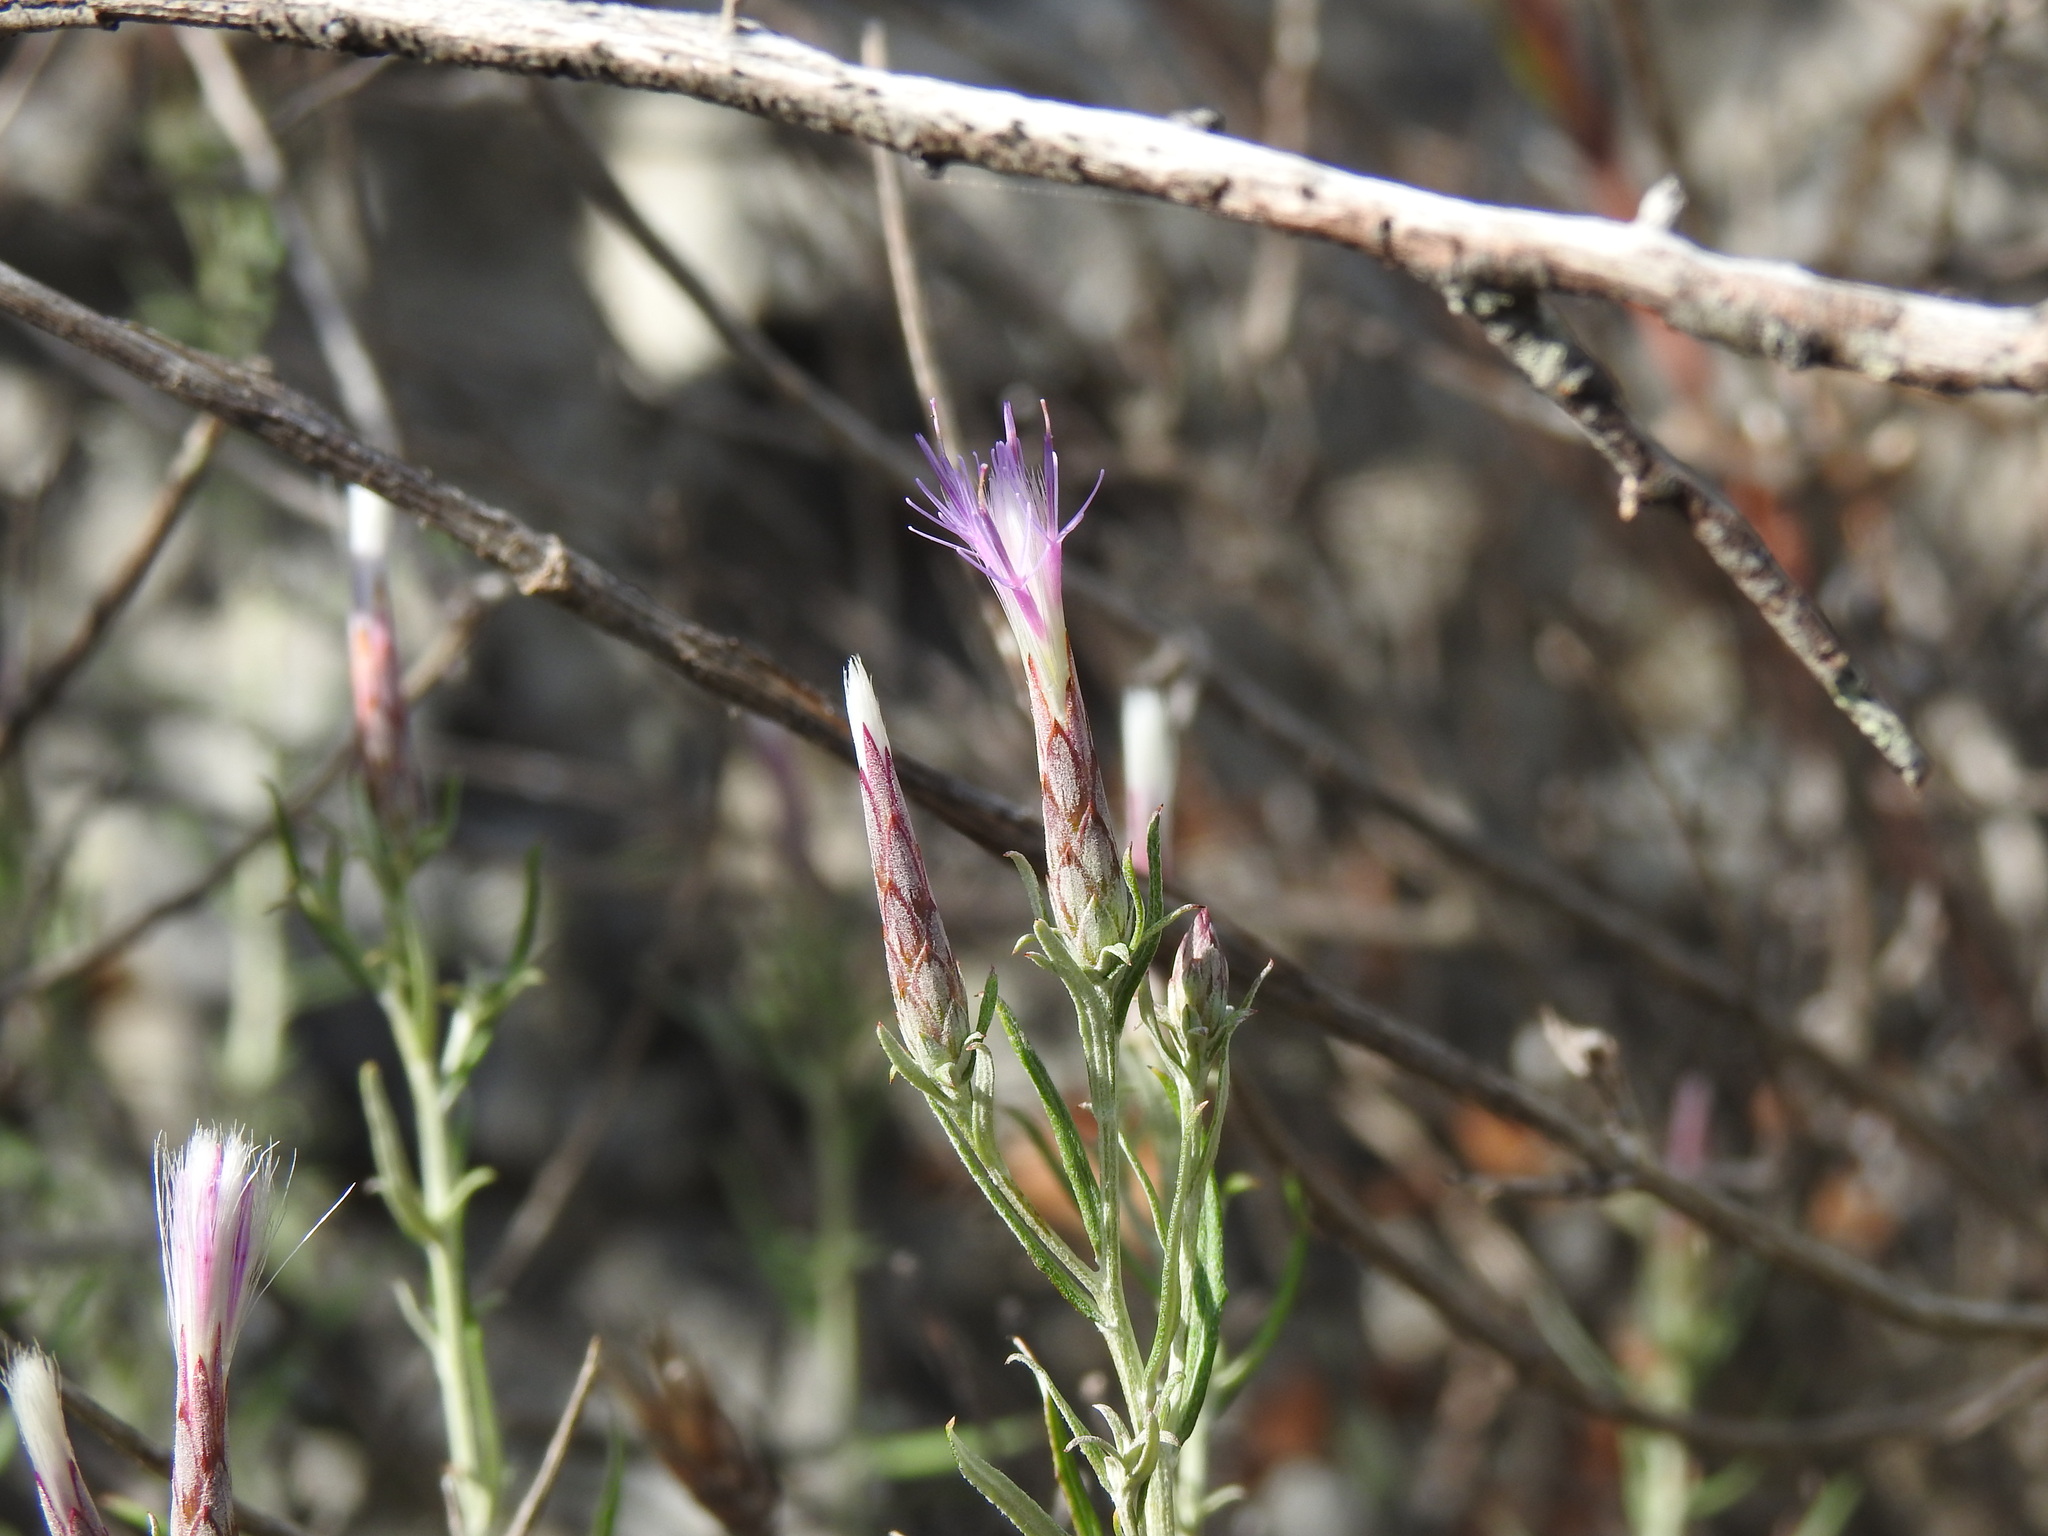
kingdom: Plantae
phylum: Tracheophyta
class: Magnoliopsida
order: Asterales
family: Asteraceae
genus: Staehelina
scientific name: Staehelina dubia
